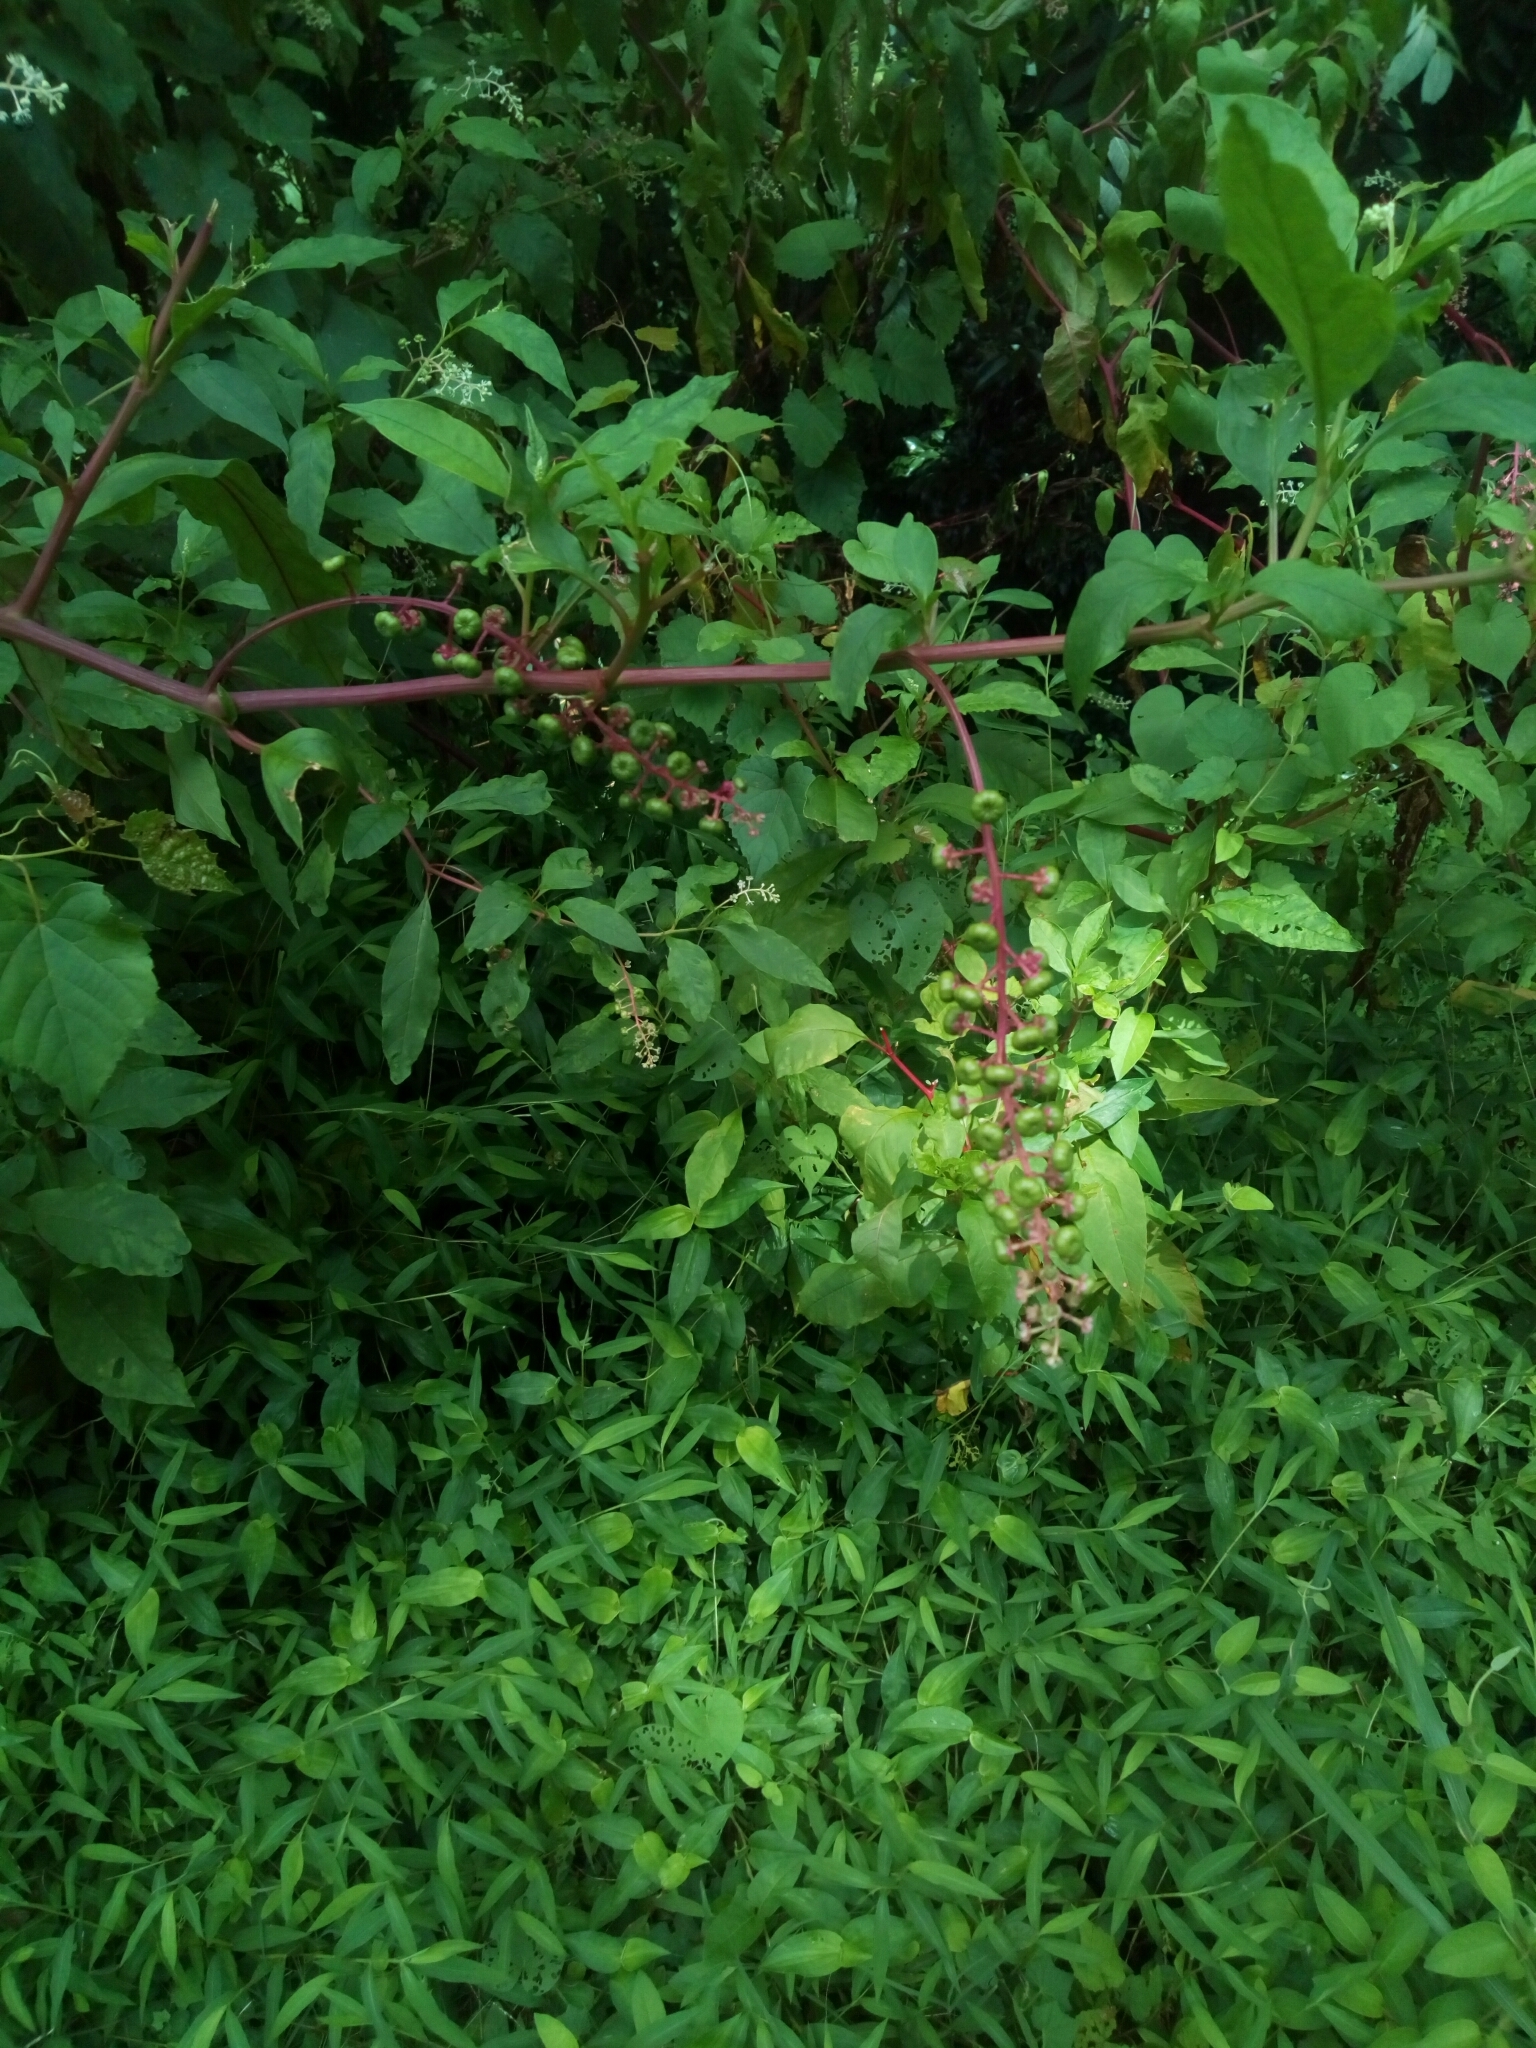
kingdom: Plantae
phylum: Tracheophyta
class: Magnoliopsida
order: Caryophyllales
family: Phytolaccaceae
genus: Phytolacca
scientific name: Phytolacca americana
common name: American pokeweed
